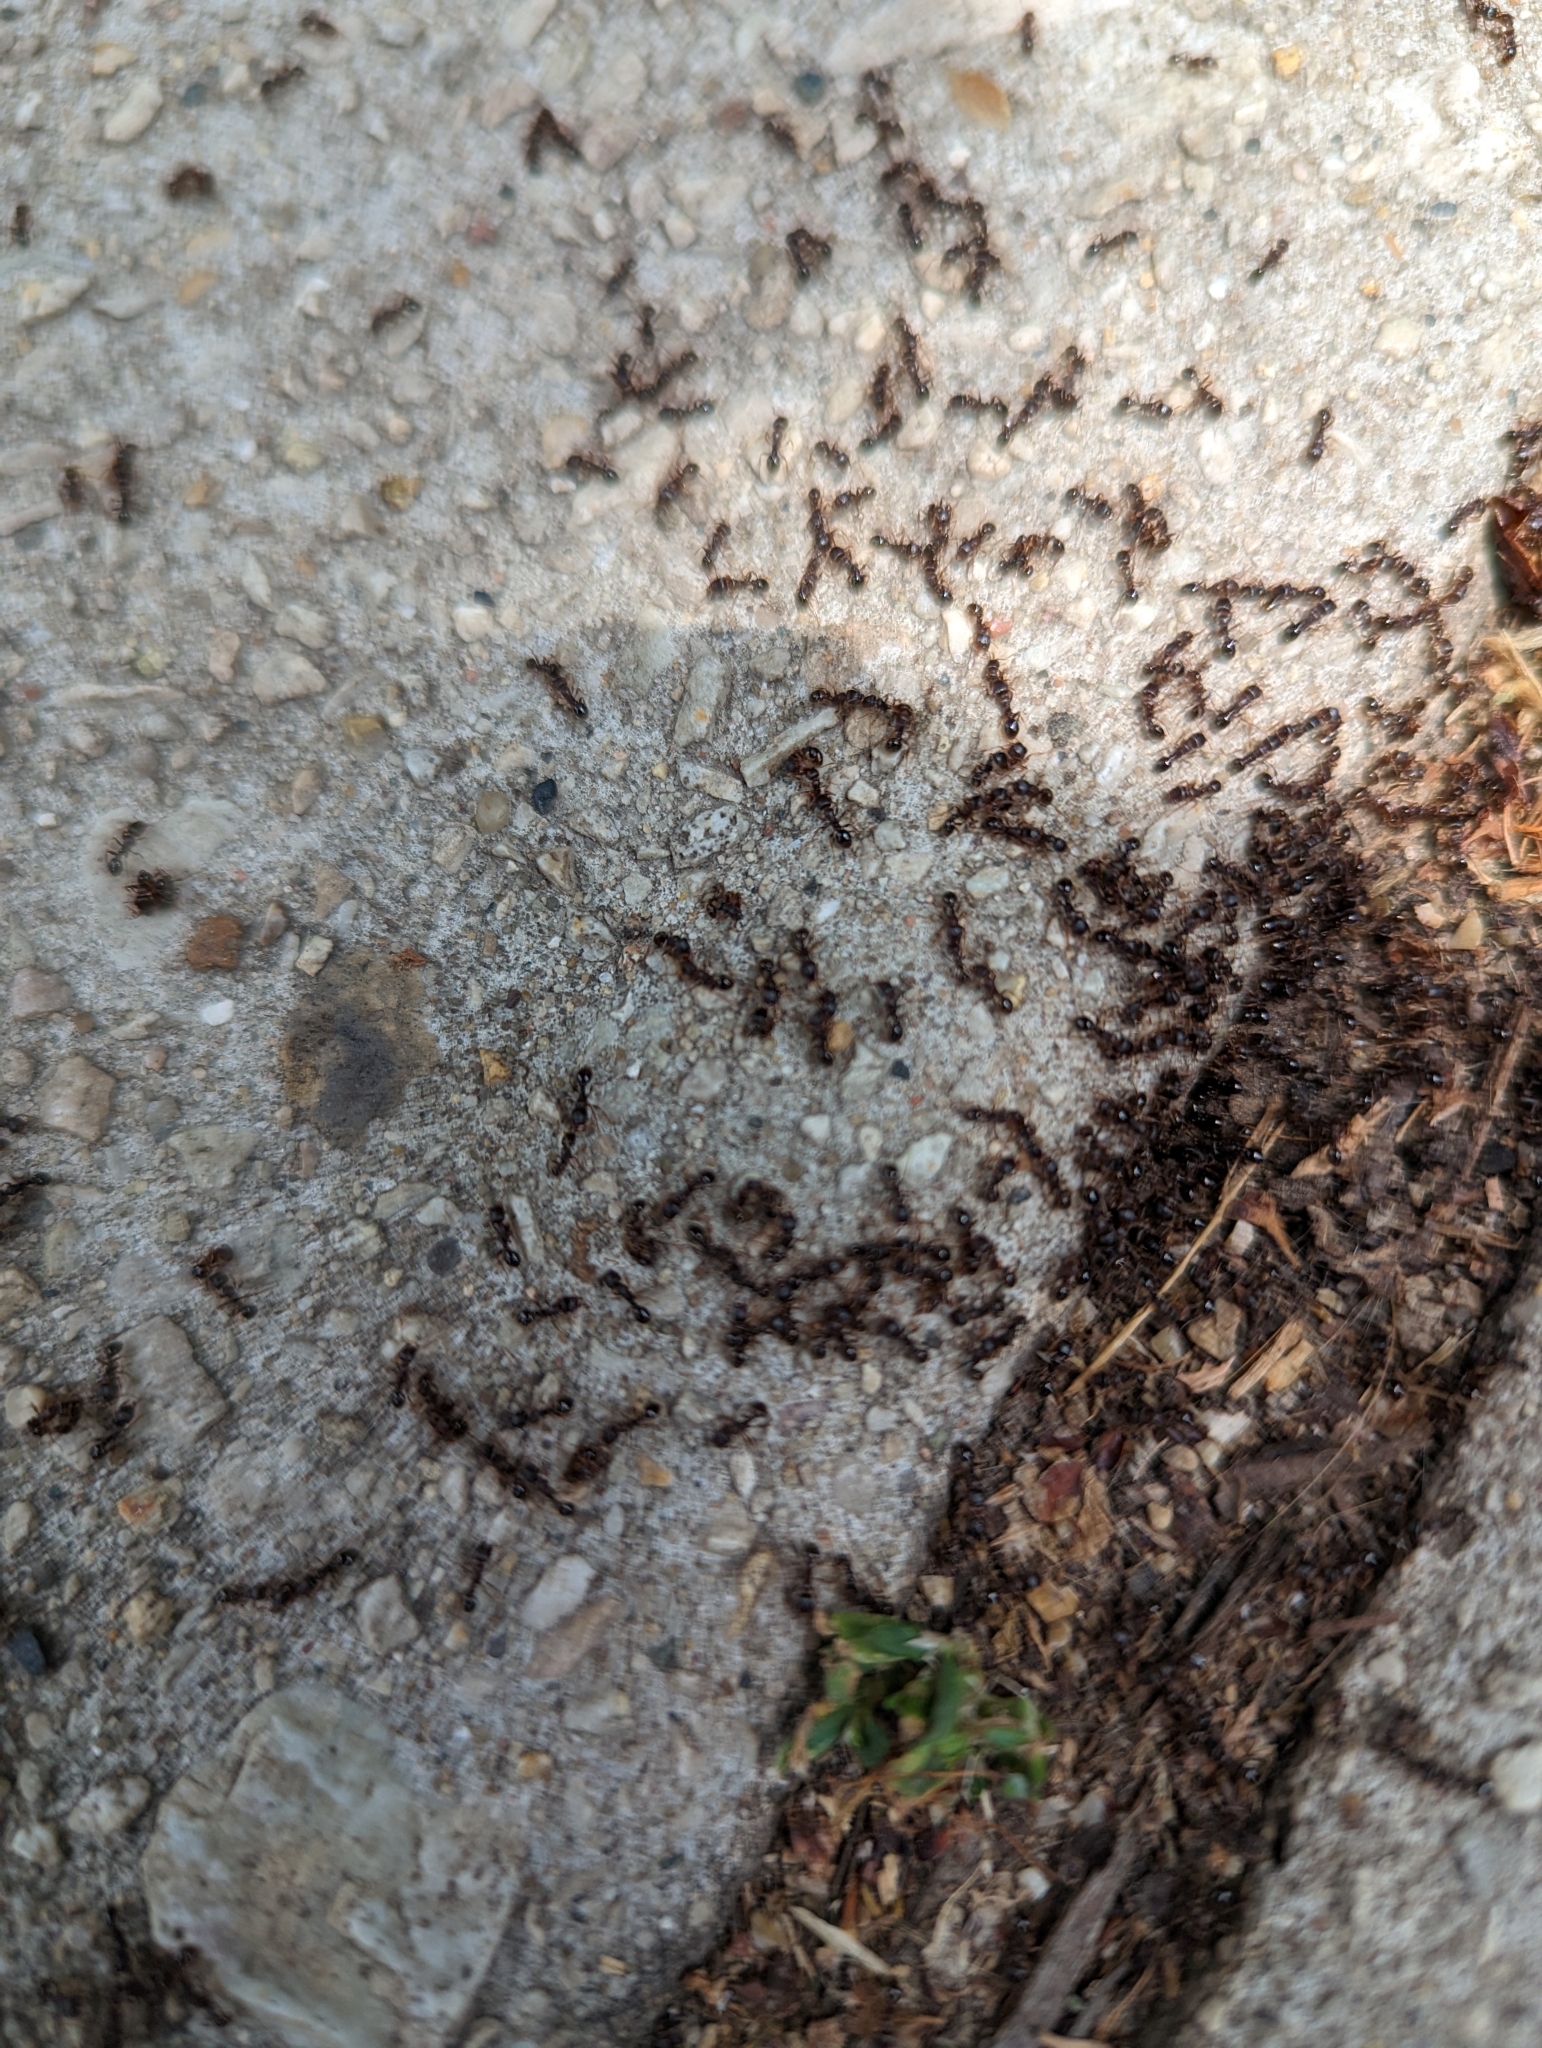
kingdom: Animalia
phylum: Arthropoda
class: Insecta
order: Hymenoptera
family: Formicidae
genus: Tetramorium
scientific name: Tetramorium immigrans
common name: Pavement ant
